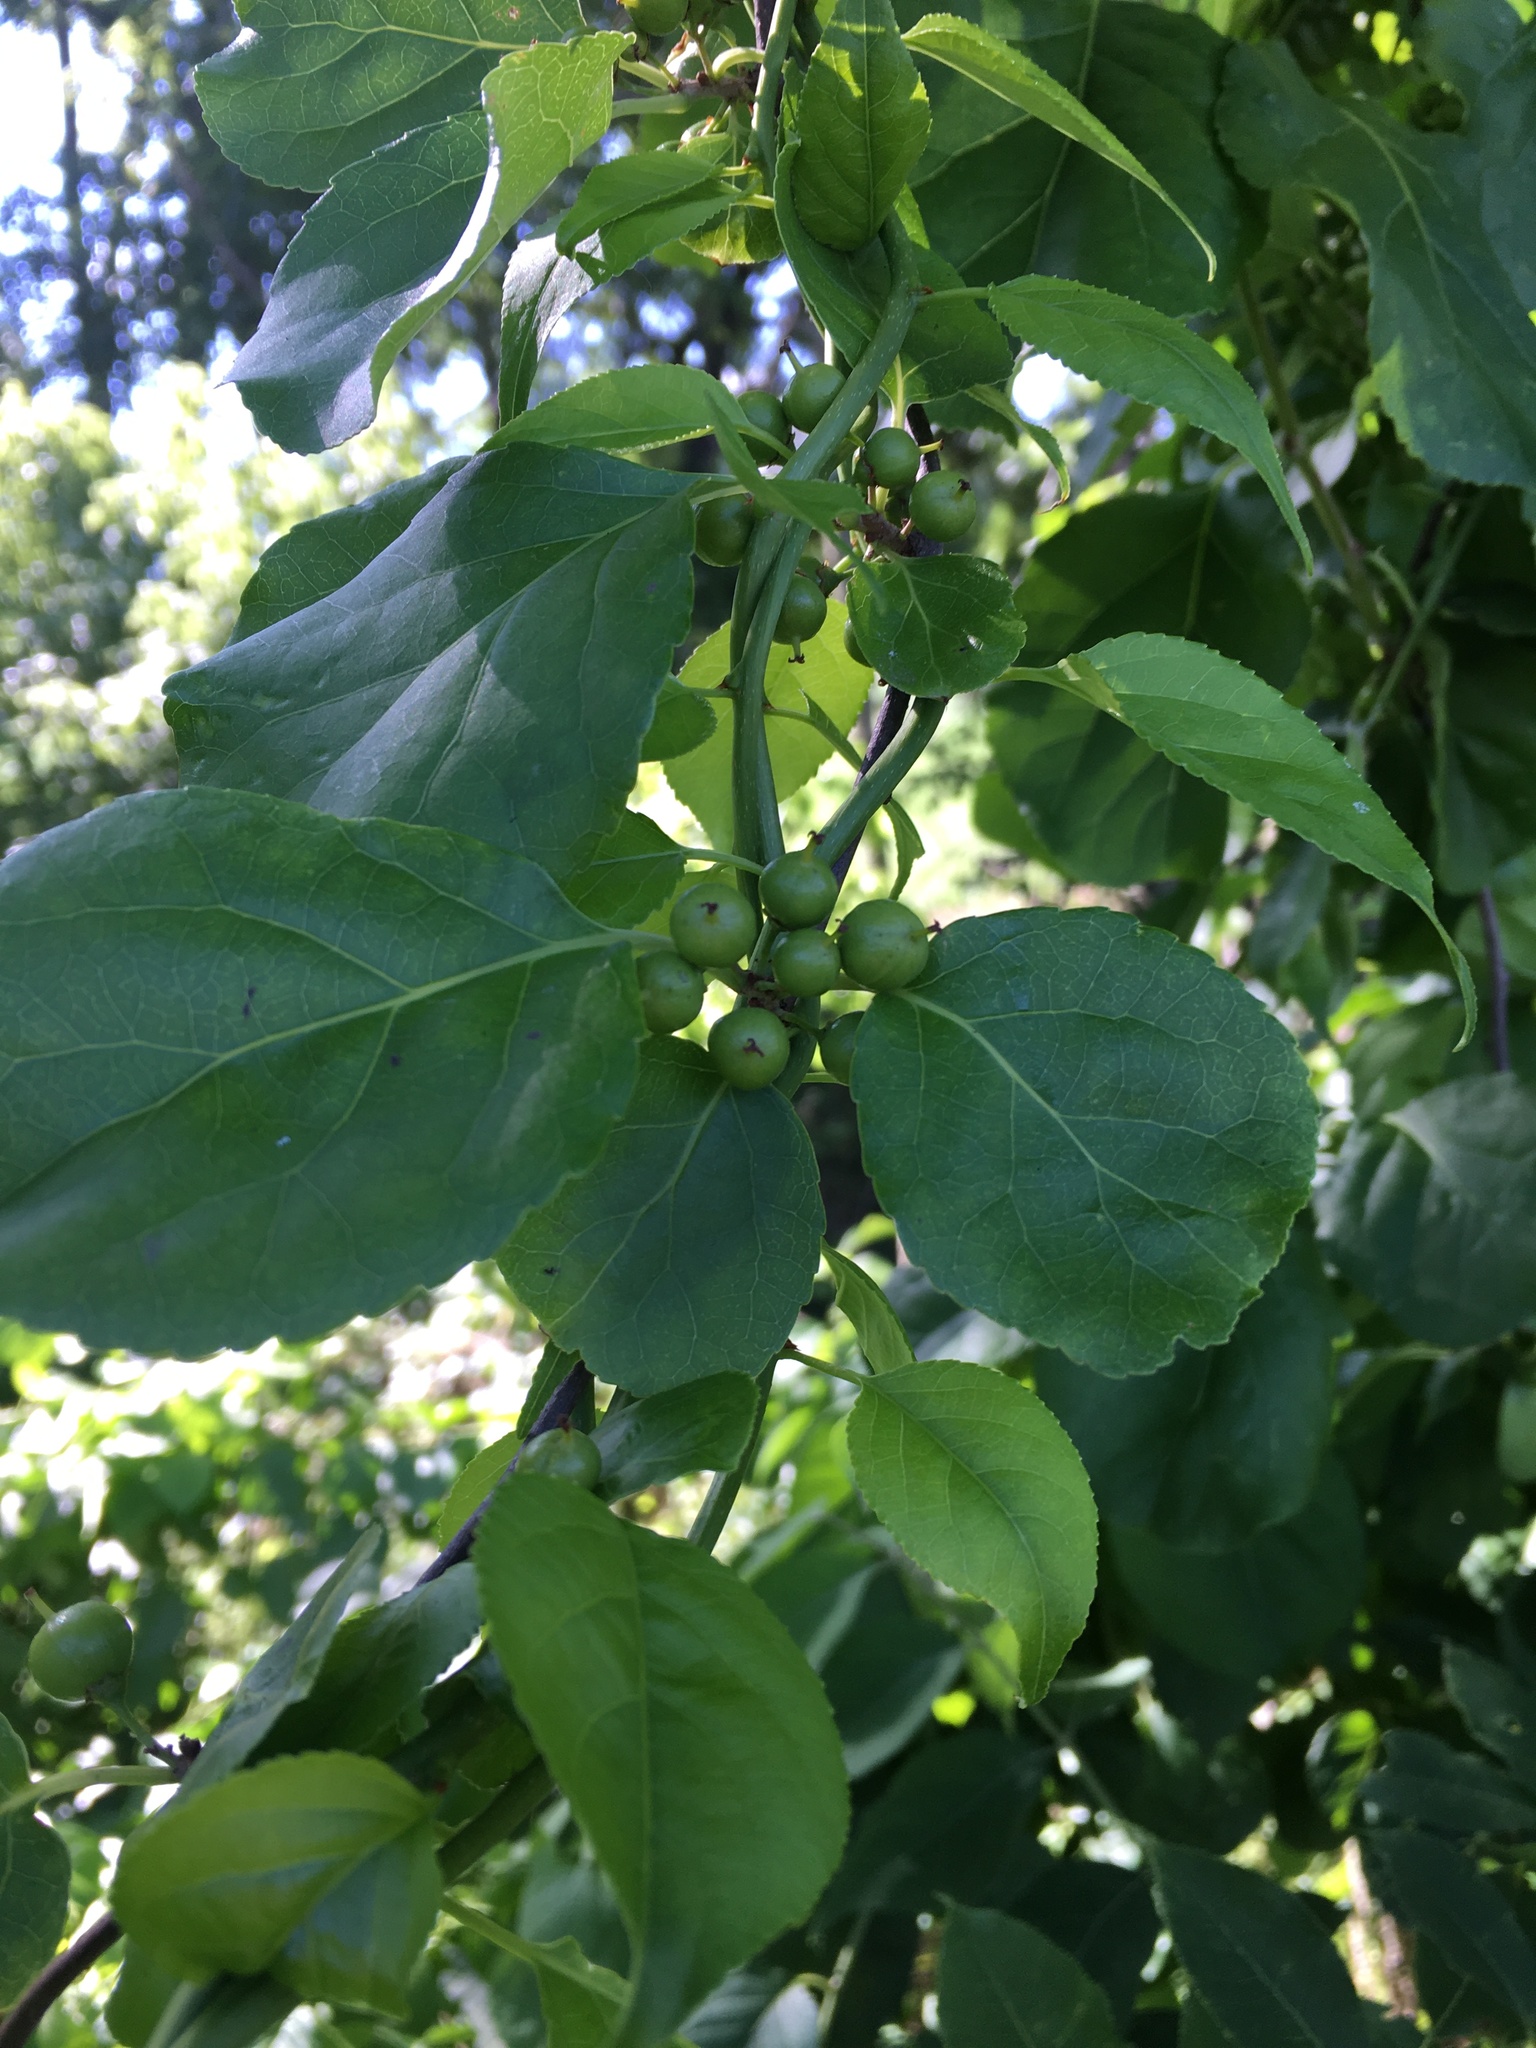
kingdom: Plantae
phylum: Tracheophyta
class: Magnoliopsida
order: Celastrales
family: Celastraceae
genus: Celastrus
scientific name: Celastrus orbiculatus
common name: Oriental bittersweet
